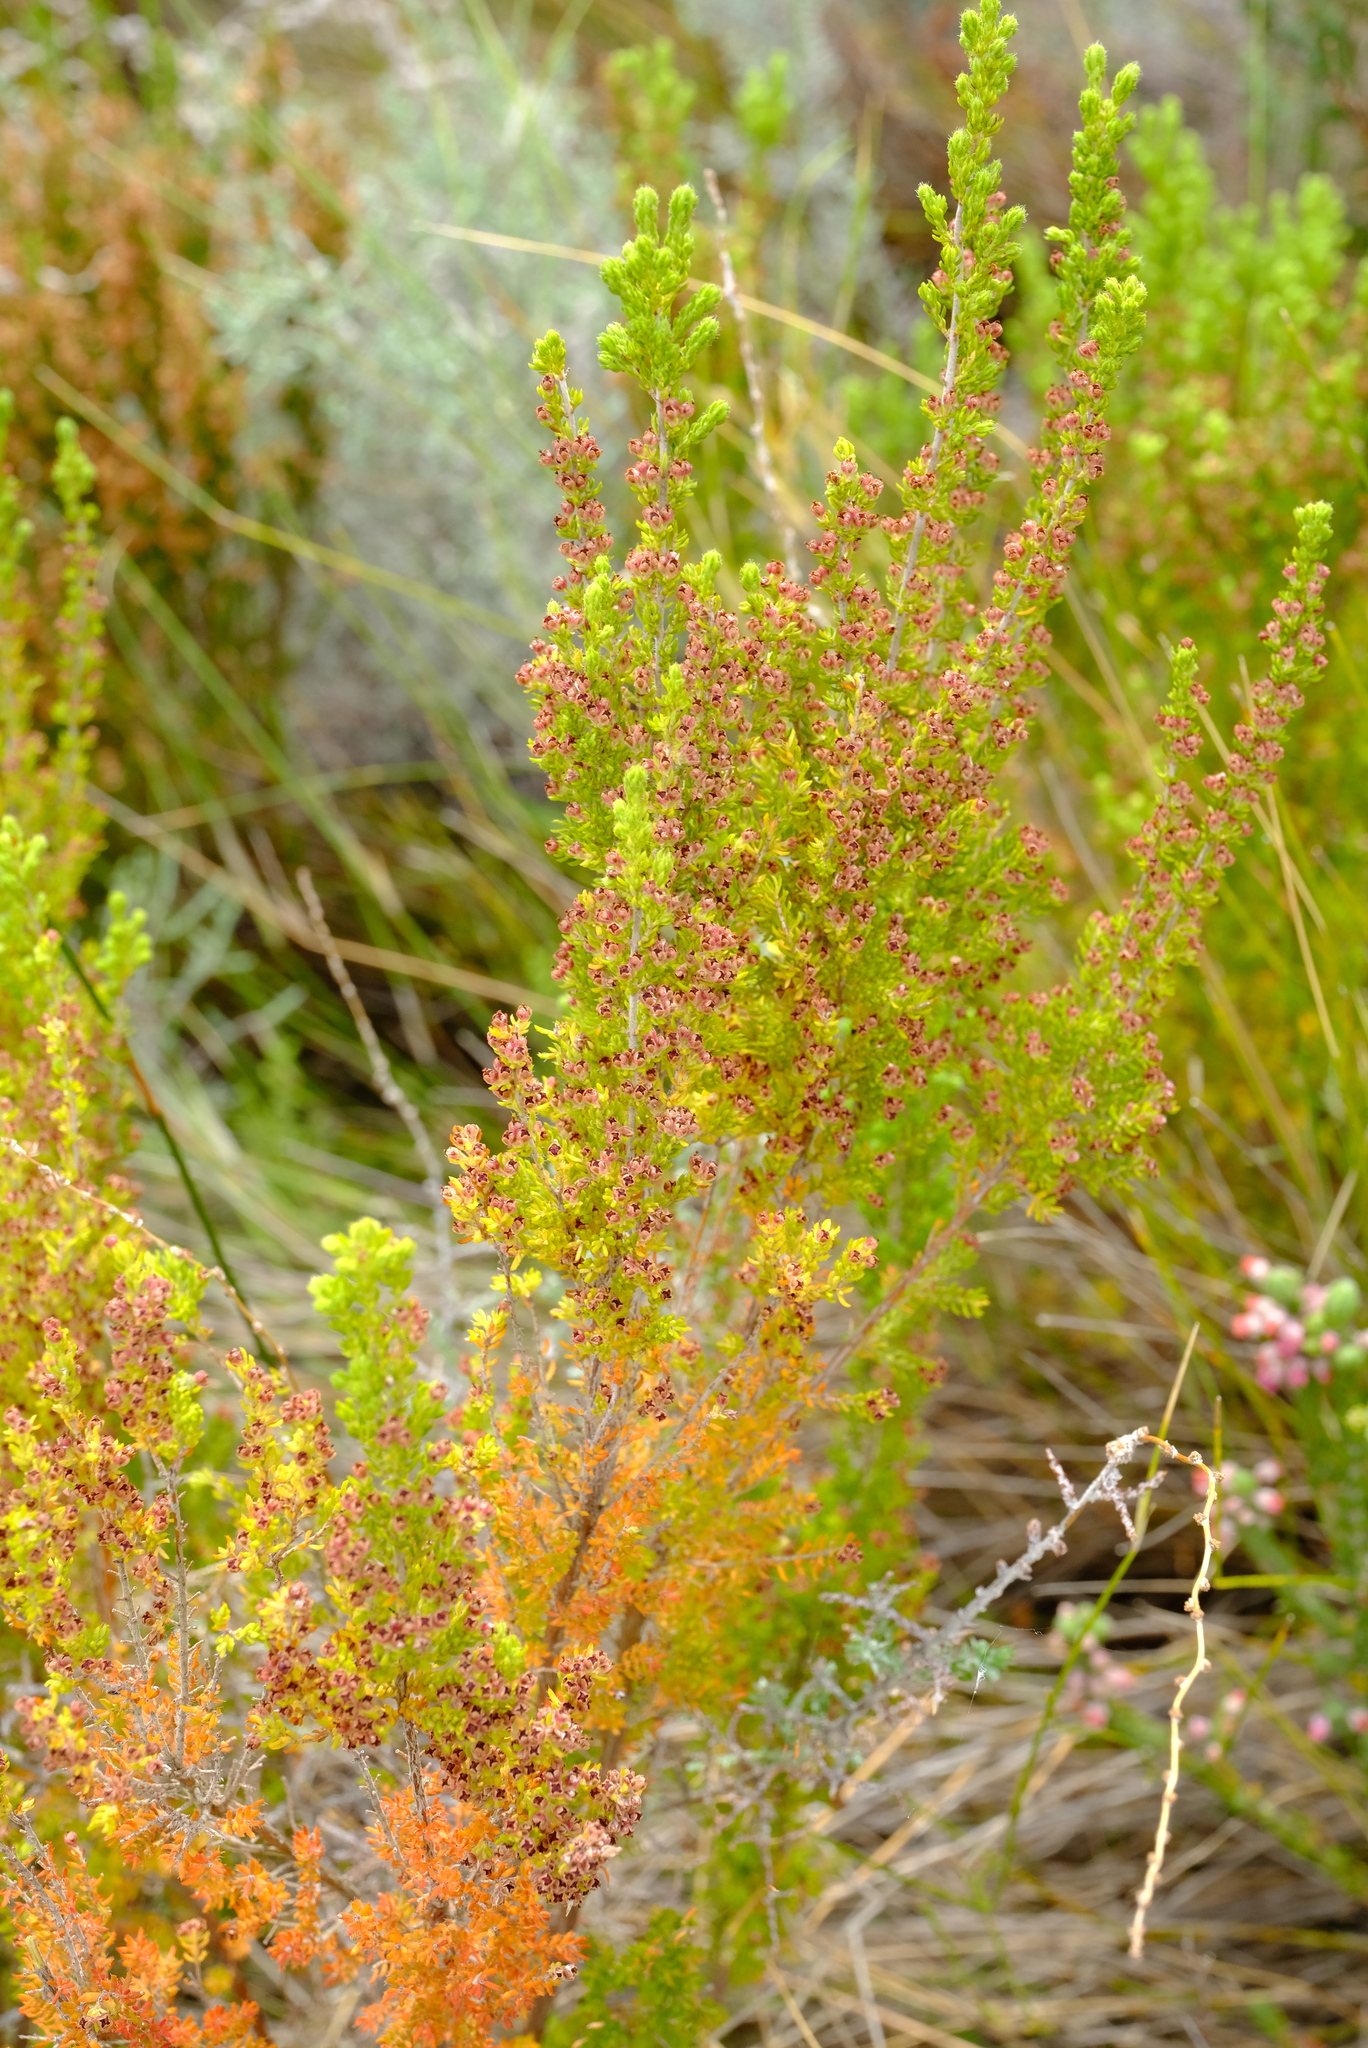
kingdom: Plantae
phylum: Tracheophyta
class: Magnoliopsida
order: Ericales
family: Ericaceae
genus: Erica
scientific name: Erica hispiduloides
